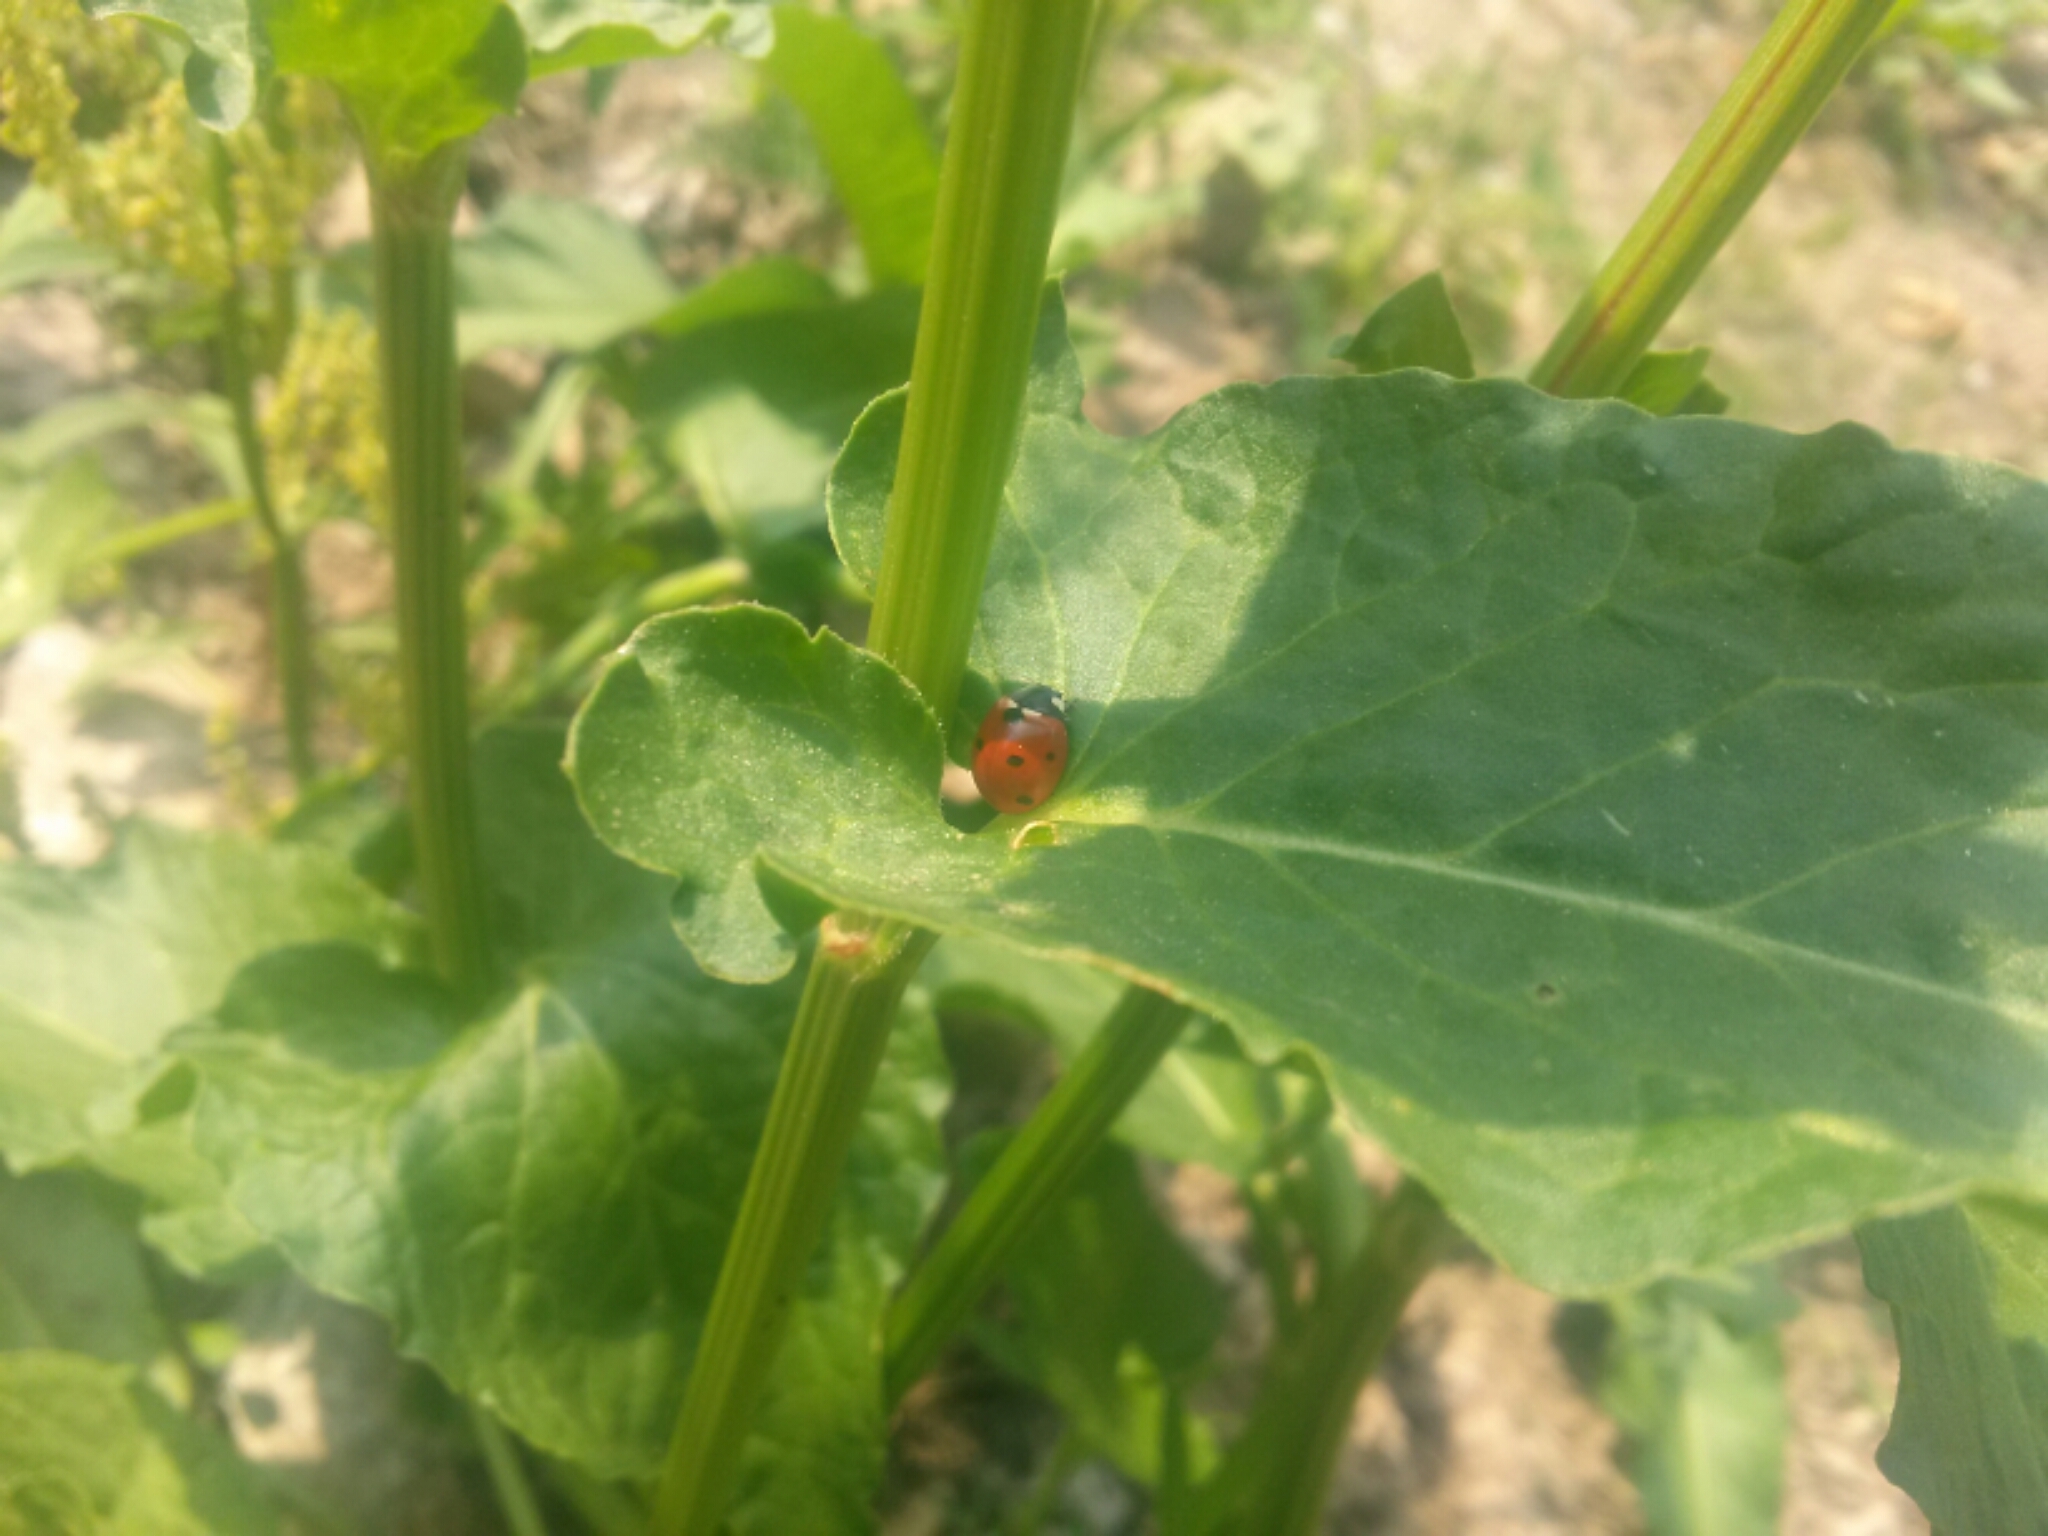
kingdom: Animalia
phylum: Arthropoda
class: Insecta
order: Coleoptera
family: Coccinellidae
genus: Coccinella
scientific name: Coccinella septempunctata
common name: Sevenspotted lady beetle
